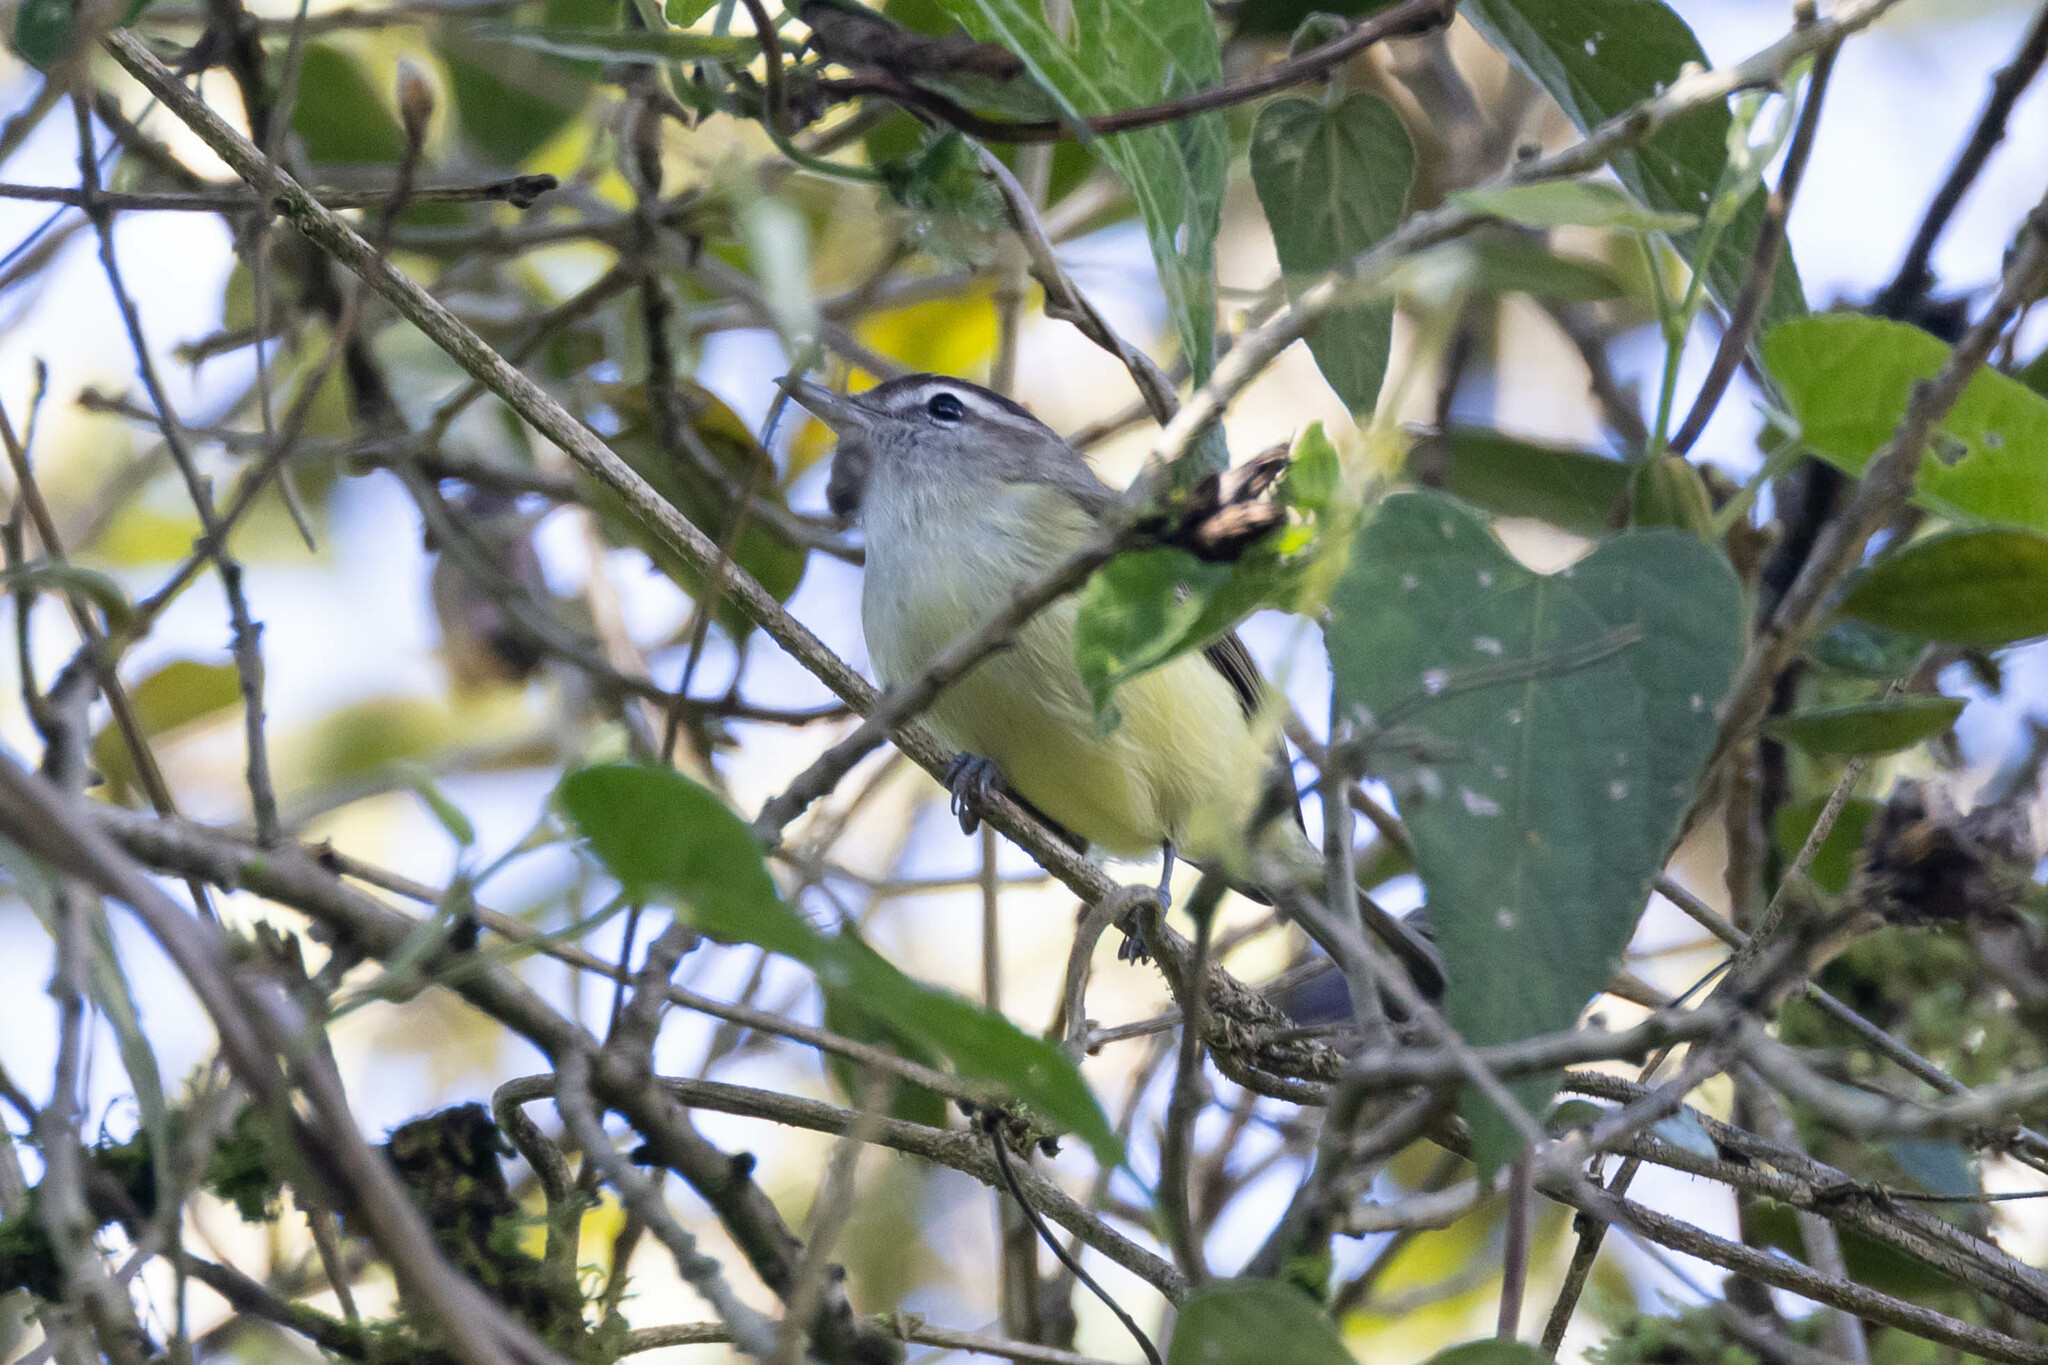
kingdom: Animalia
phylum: Chordata
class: Aves
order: Passeriformes
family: Vireonidae
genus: Vireo
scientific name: Vireo leucophrys
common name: Brown-capped vireo
